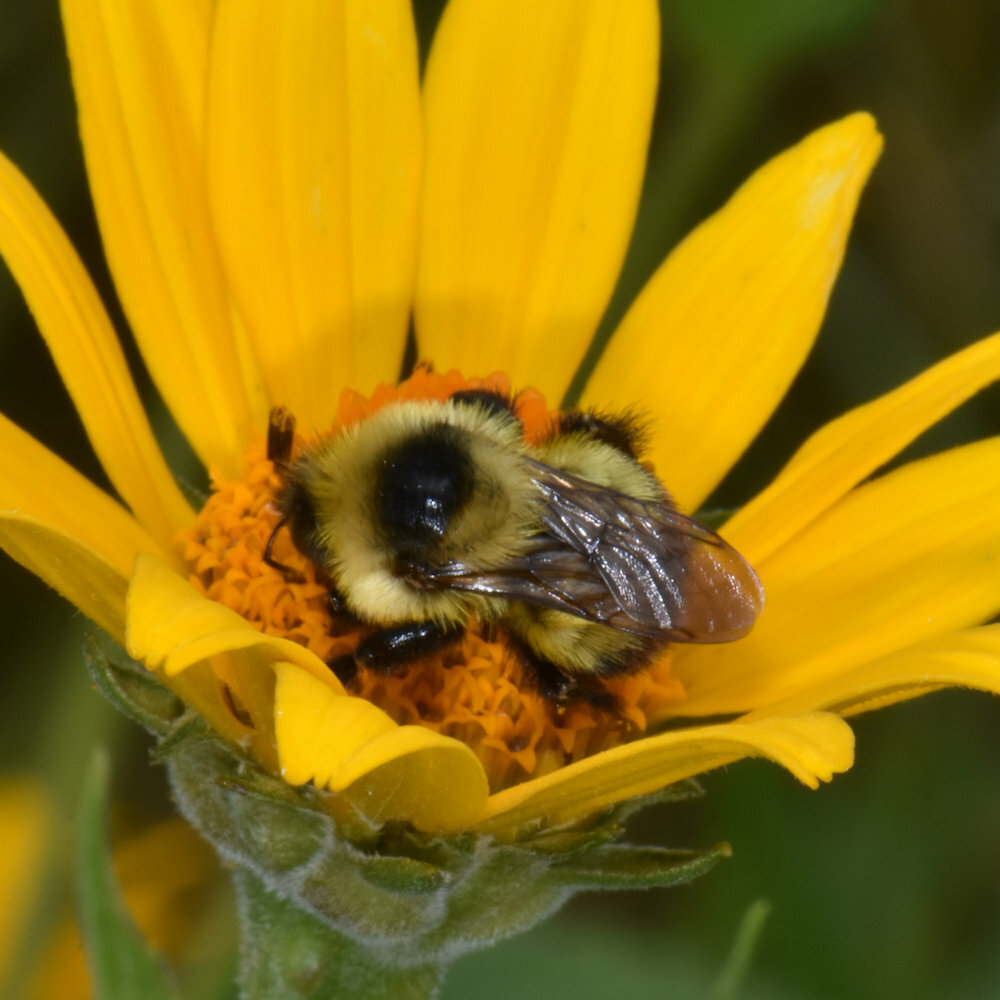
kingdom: Animalia
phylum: Arthropoda
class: Insecta
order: Hymenoptera
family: Apidae
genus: Bombus
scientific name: Bombus rufocinctus
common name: Red-belted bumble bee
